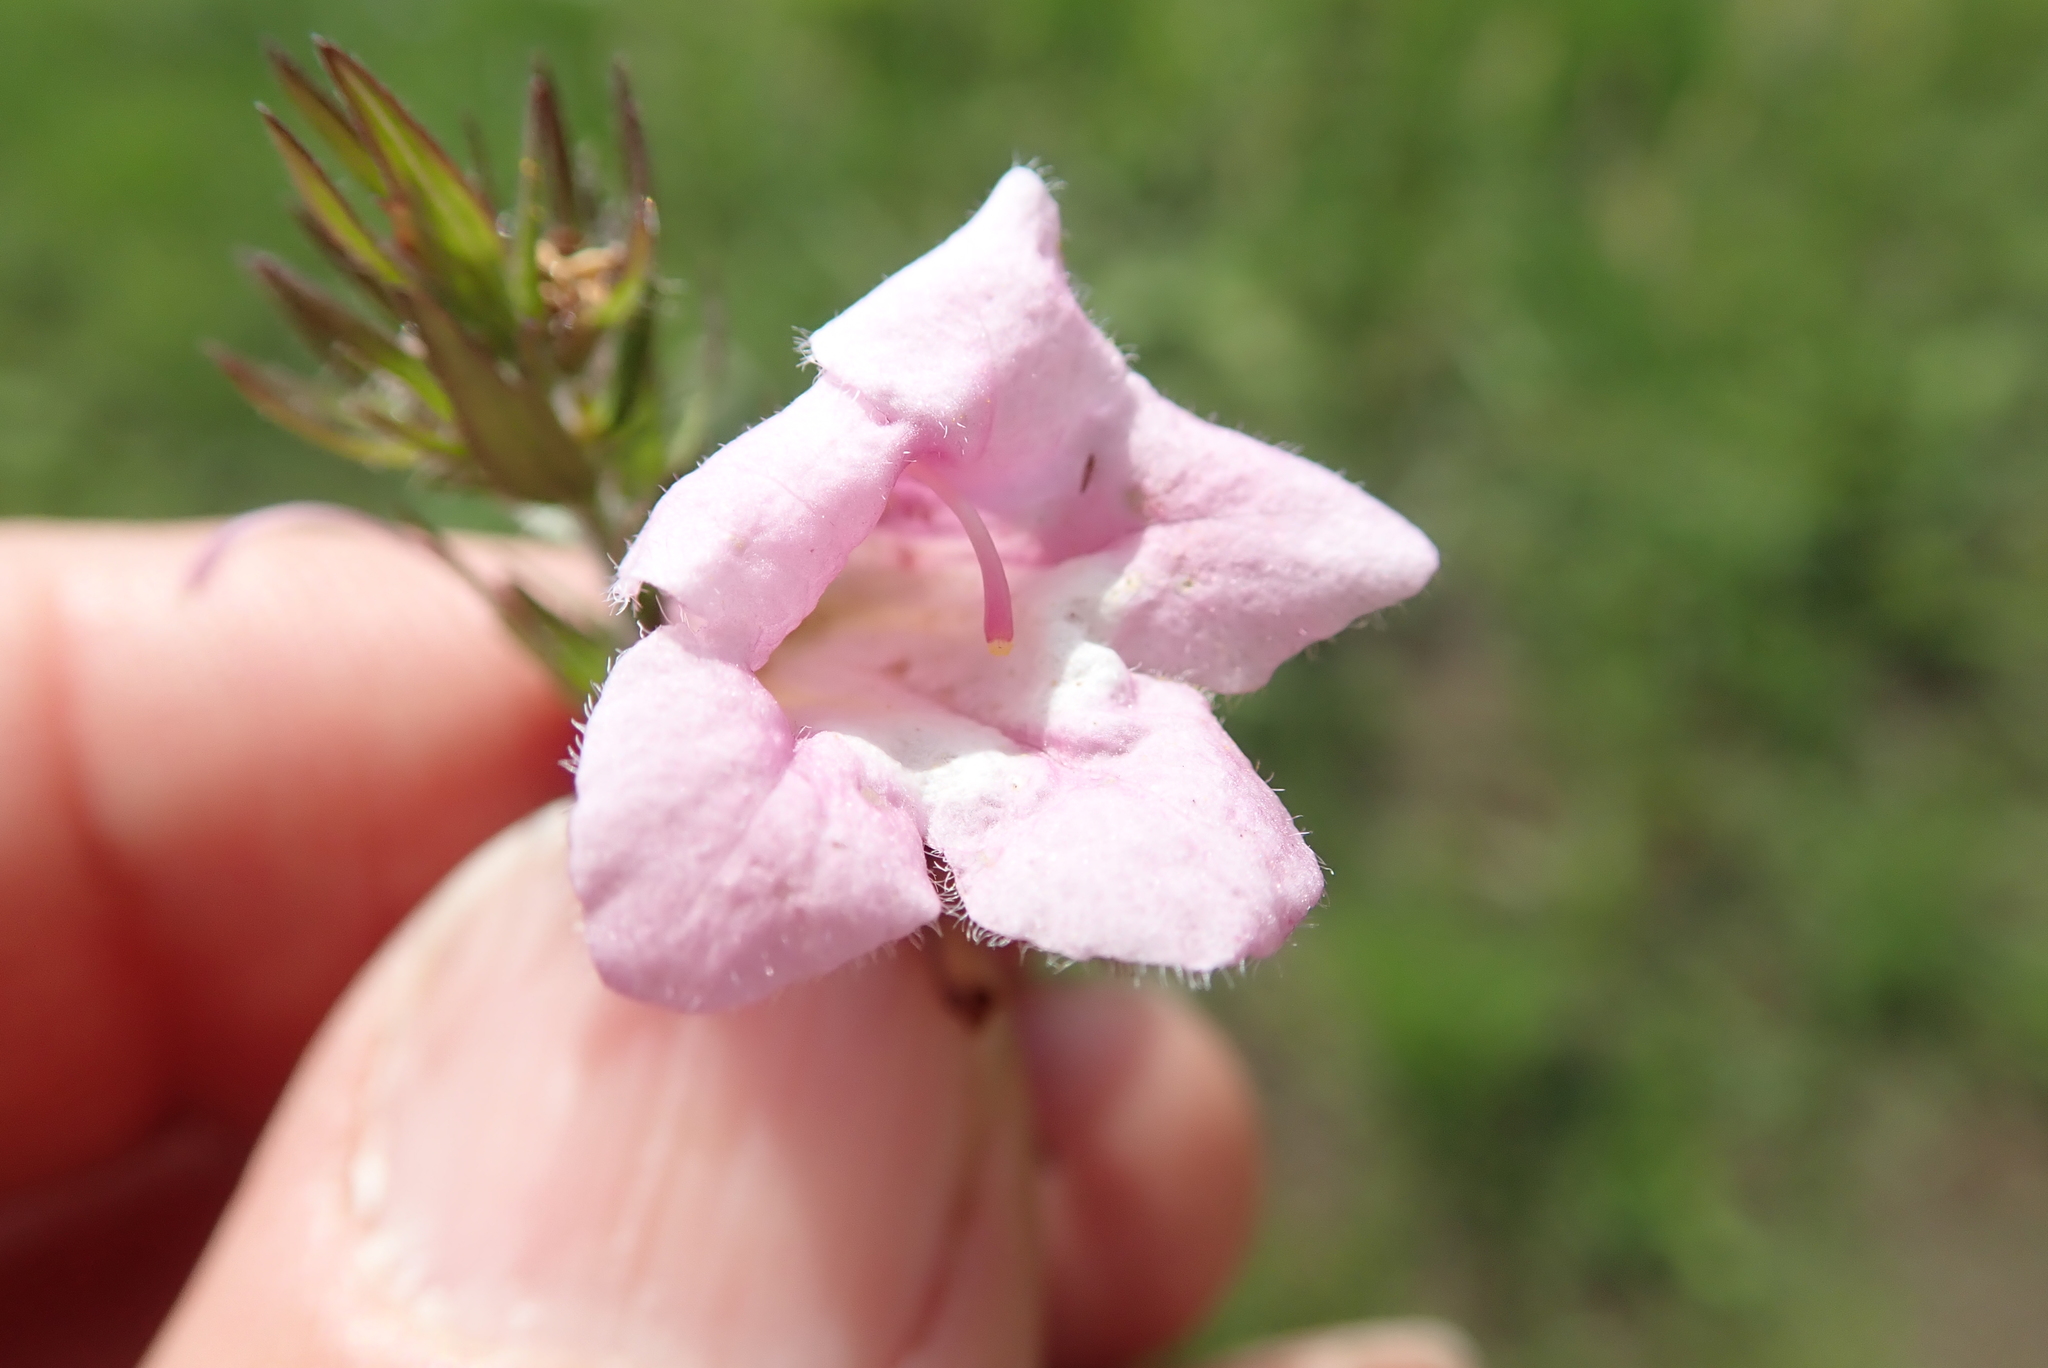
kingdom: Plantae
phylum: Tracheophyta
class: Magnoliopsida
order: Lamiales
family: Orobanchaceae
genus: Graderia
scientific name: Graderia scabra
